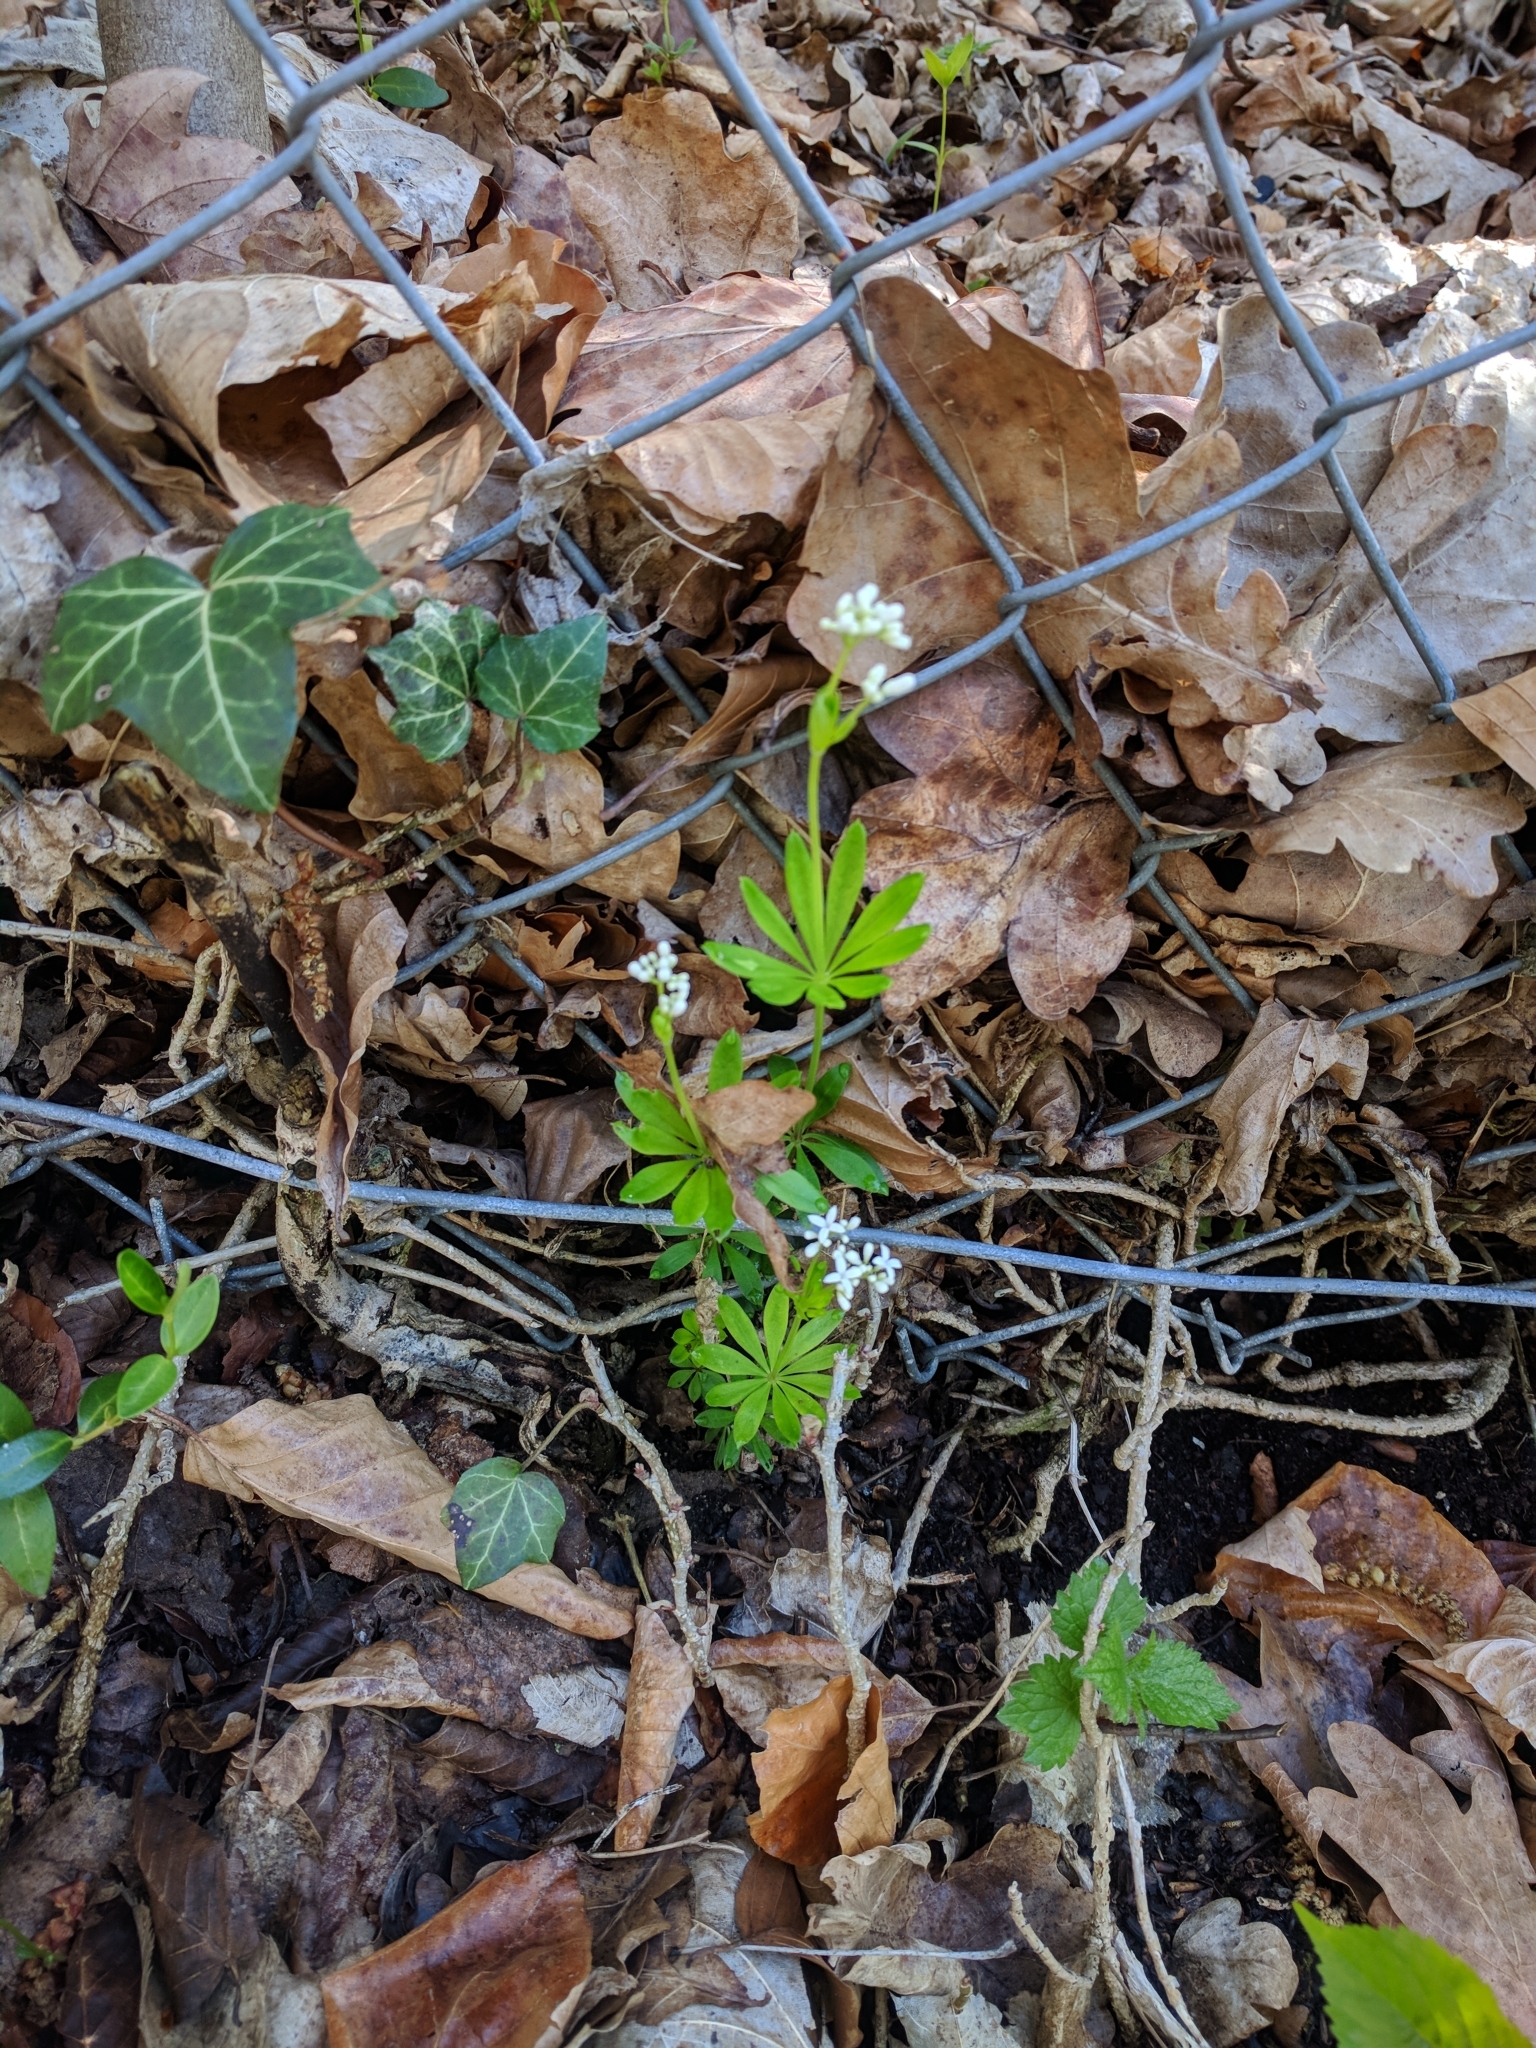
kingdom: Plantae
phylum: Tracheophyta
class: Magnoliopsida
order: Gentianales
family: Rubiaceae
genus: Galium
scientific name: Galium odoratum
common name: Sweet woodruff
